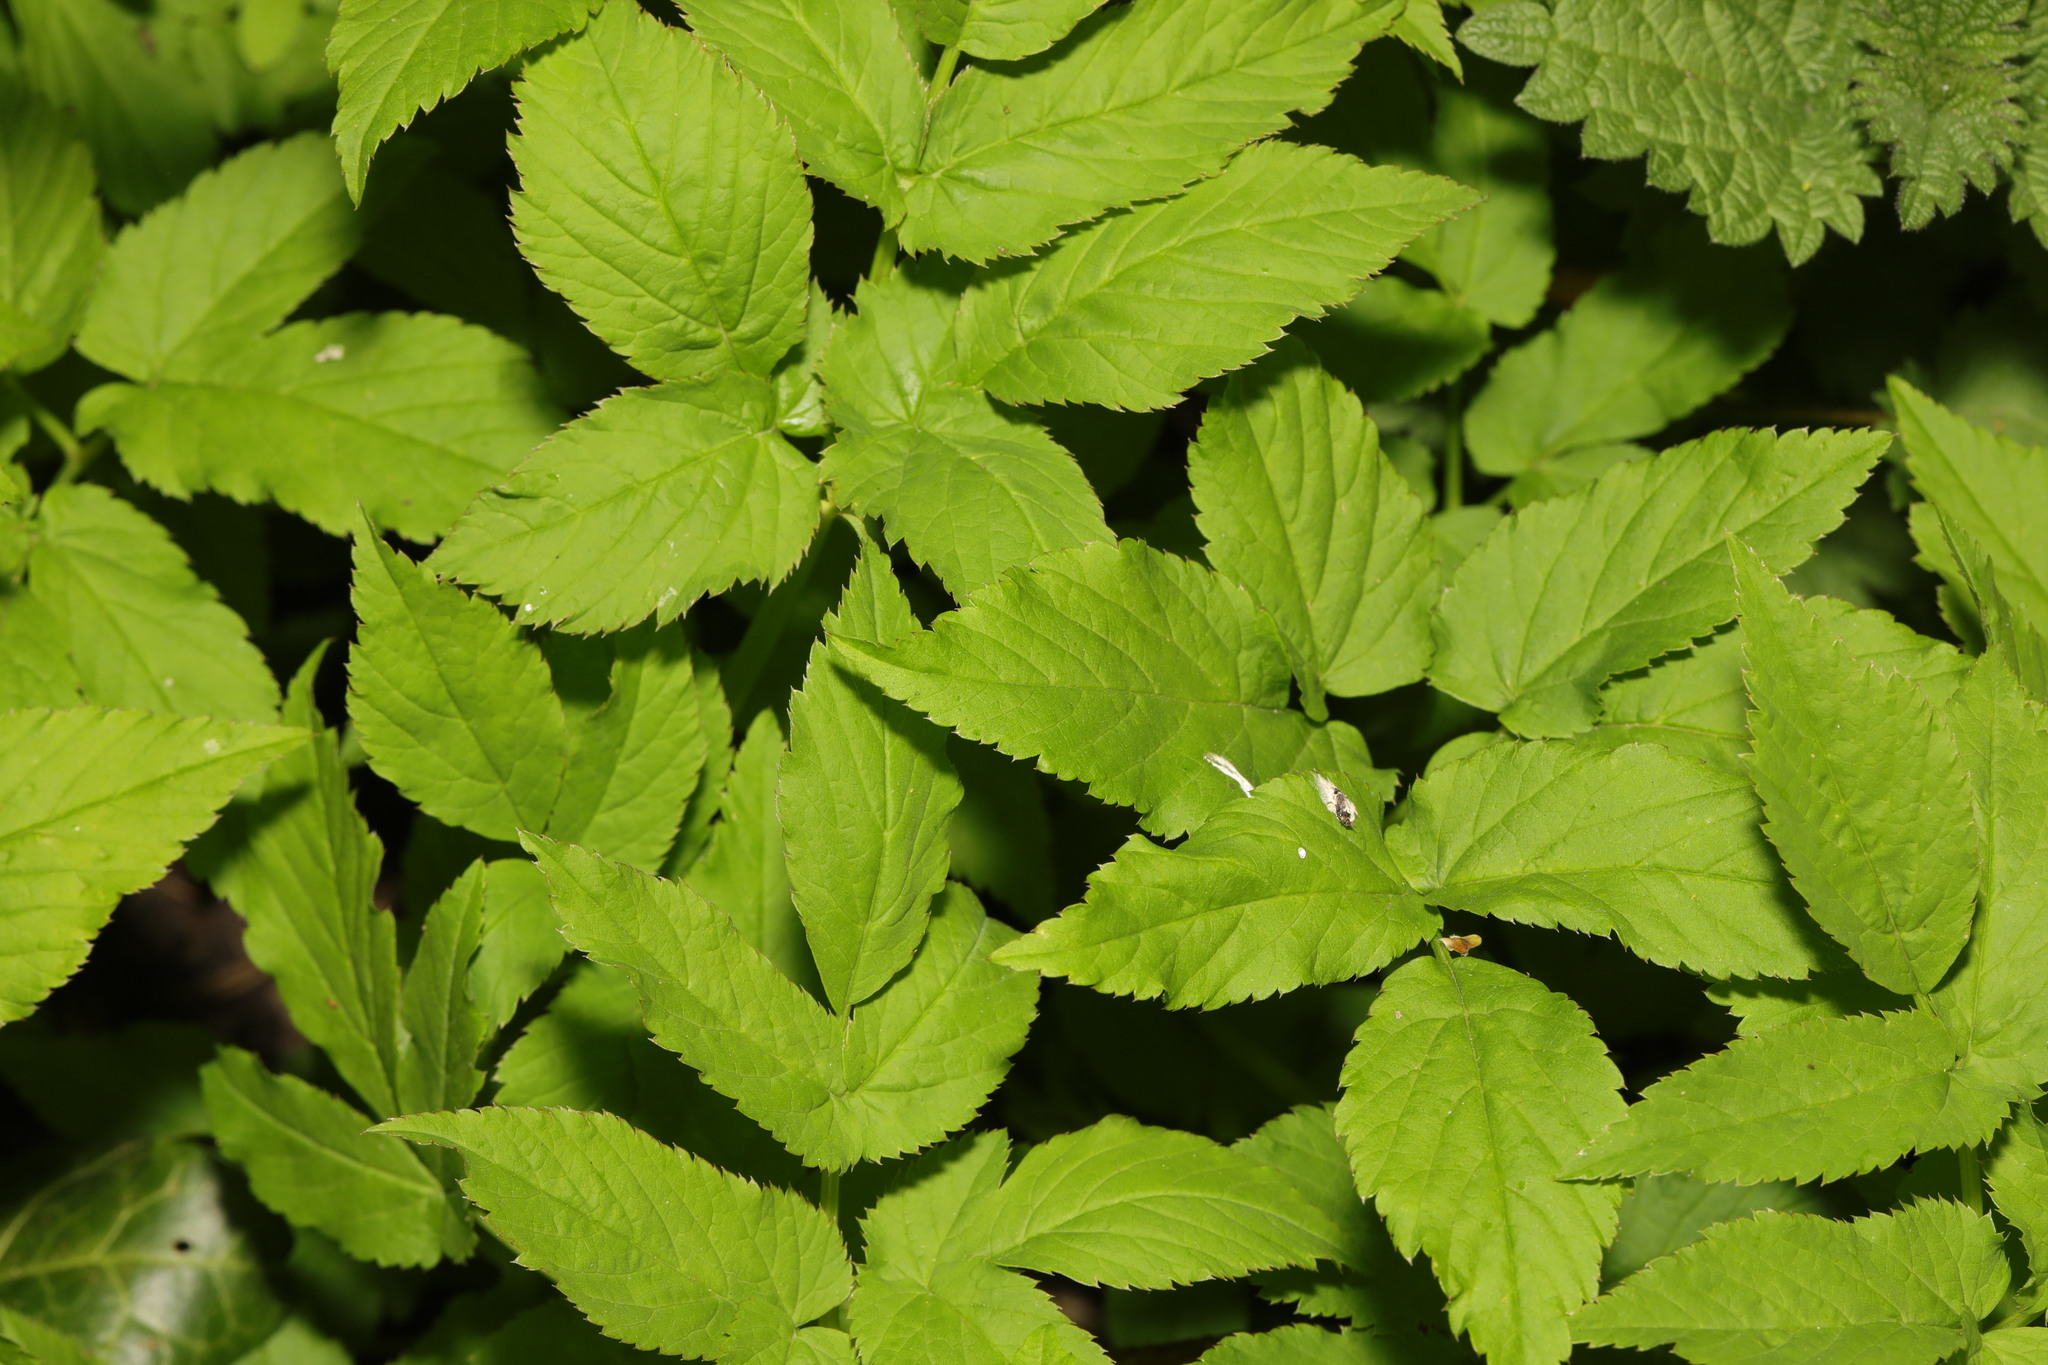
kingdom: Plantae
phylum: Tracheophyta
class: Magnoliopsida
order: Apiales
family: Apiaceae
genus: Aegopodium
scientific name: Aegopodium podagraria
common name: Ground-elder
